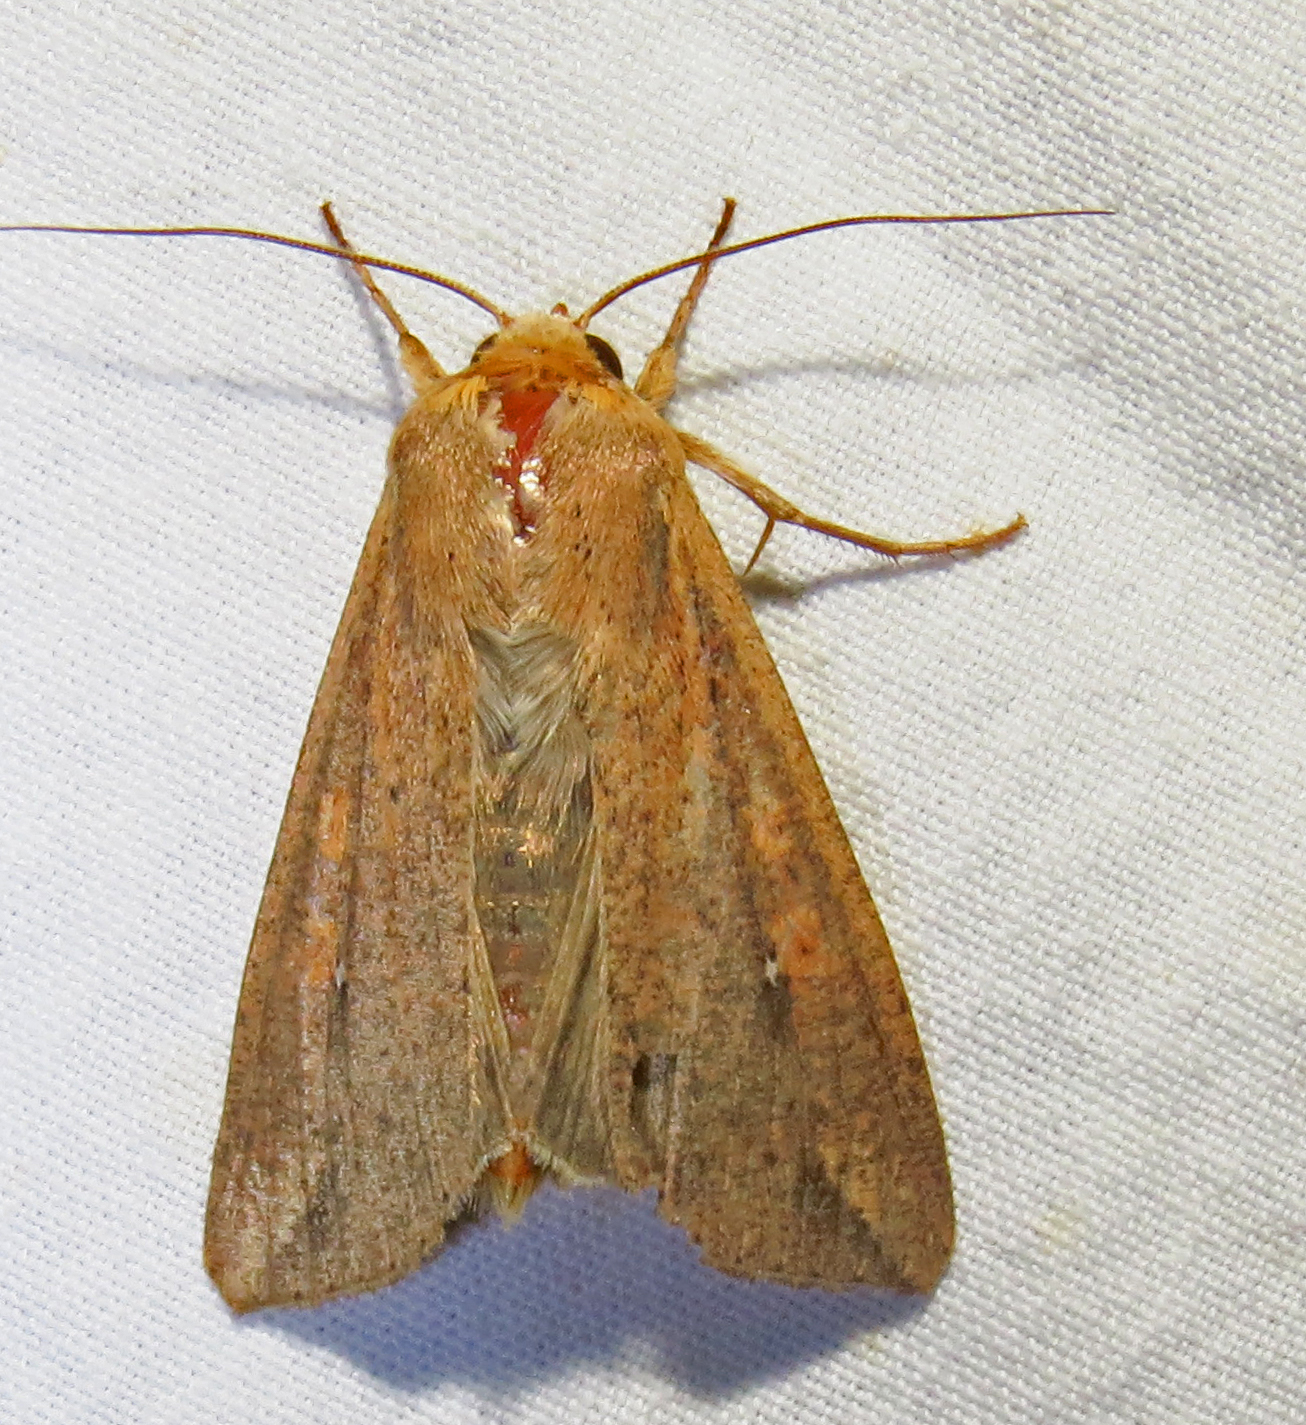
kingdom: Animalia
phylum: Arthropoda
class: Insecta
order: Lepidoptera
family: Noctuidae
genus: Mythimna
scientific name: Mythimna unipuncta
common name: White-speck
